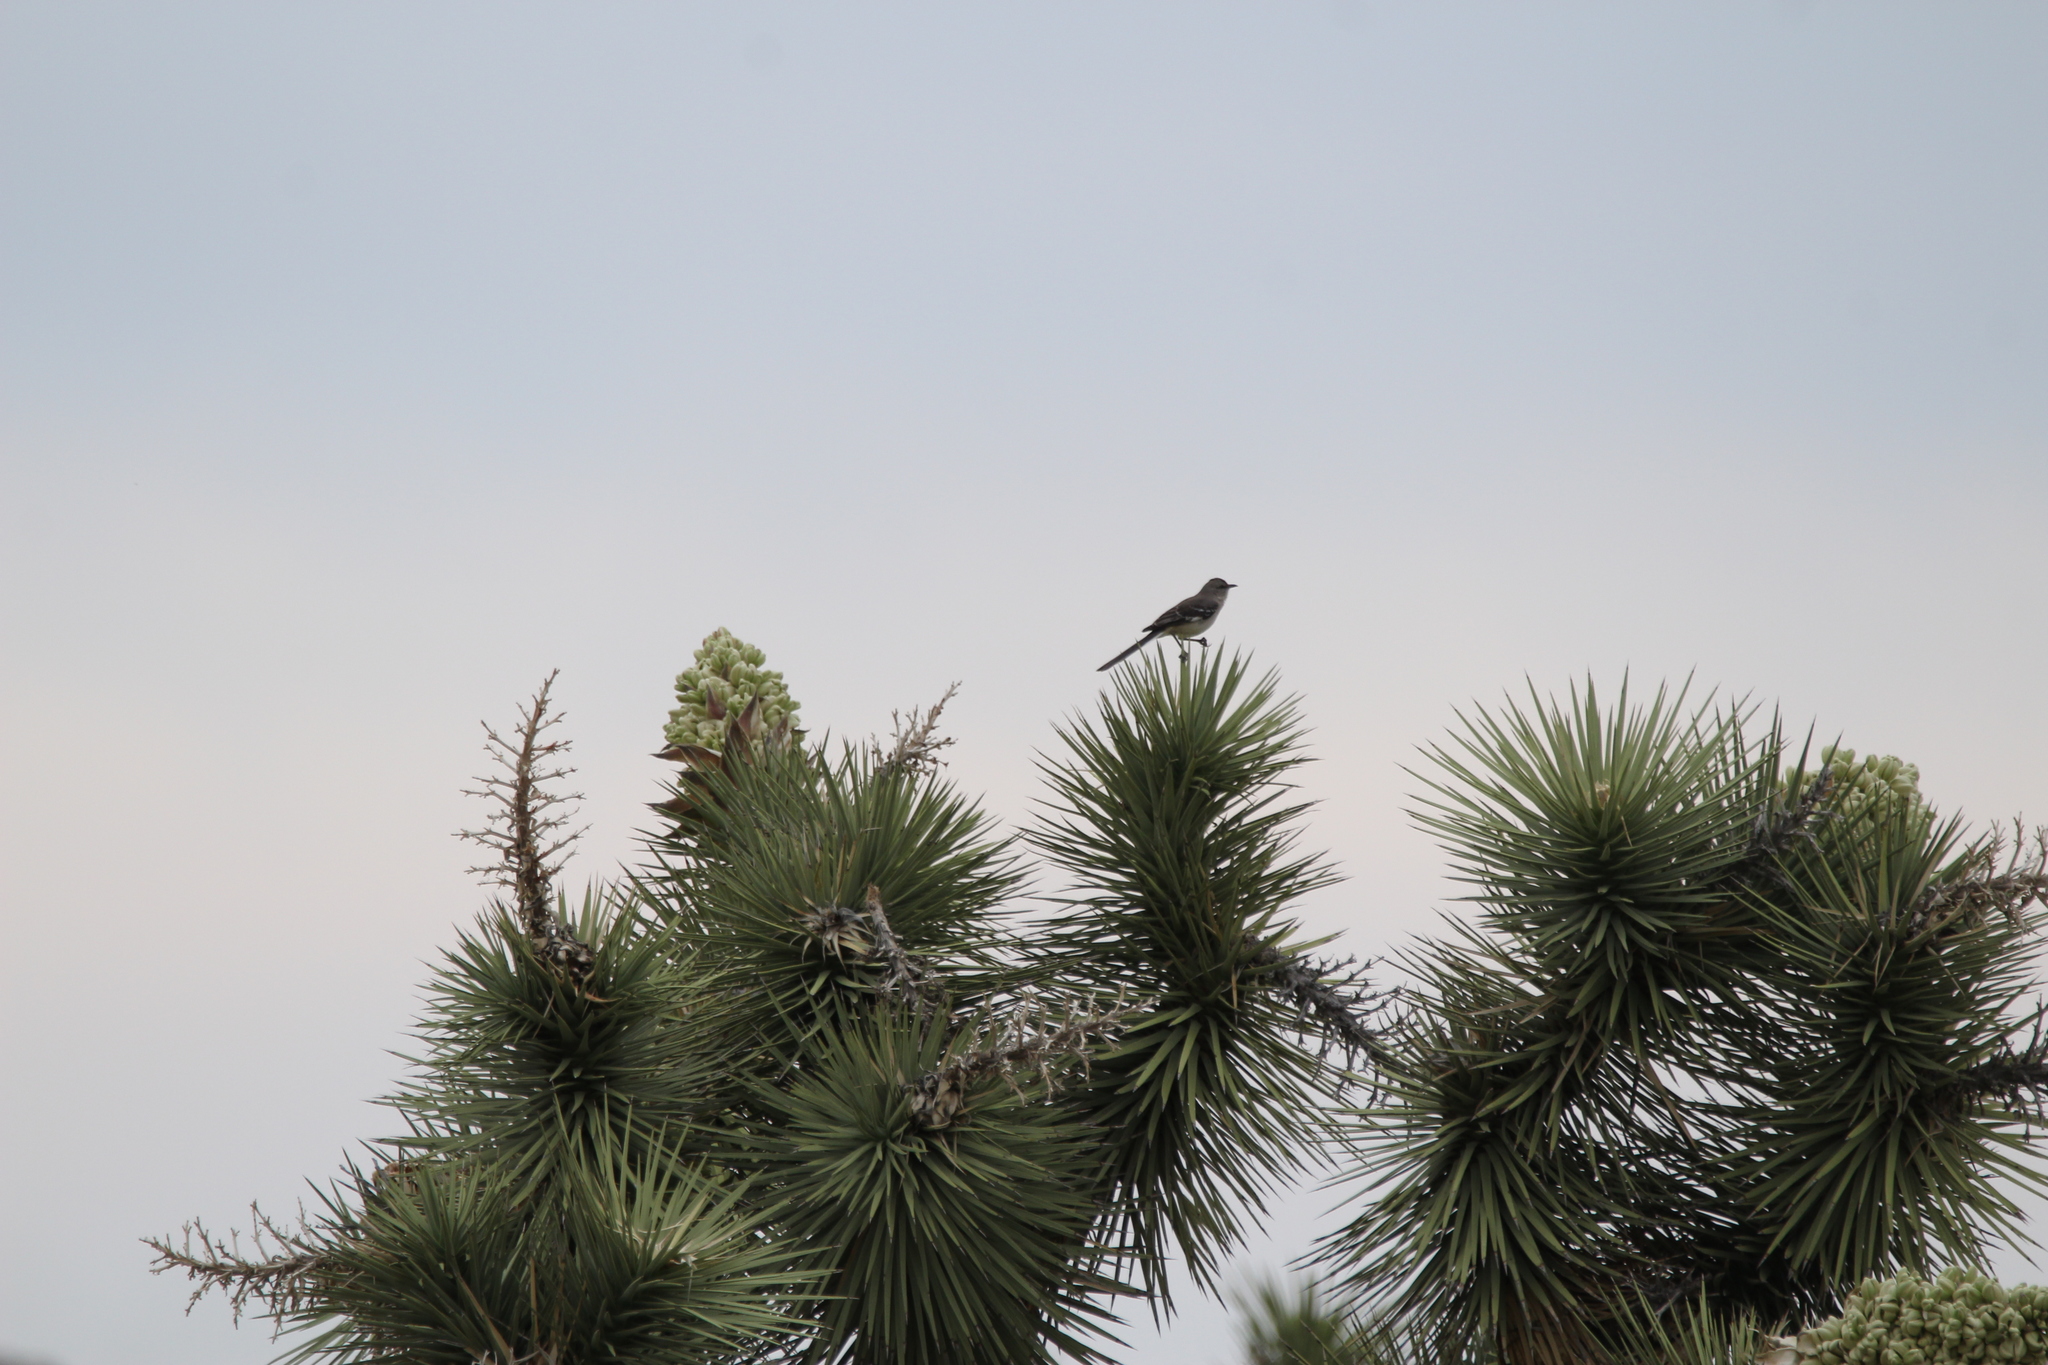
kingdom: Animalia
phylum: Chordata
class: Aves
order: Passeriformes
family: Mimidae
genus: Mimus
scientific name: Mimus polyglottos
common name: Northern mockingbird
